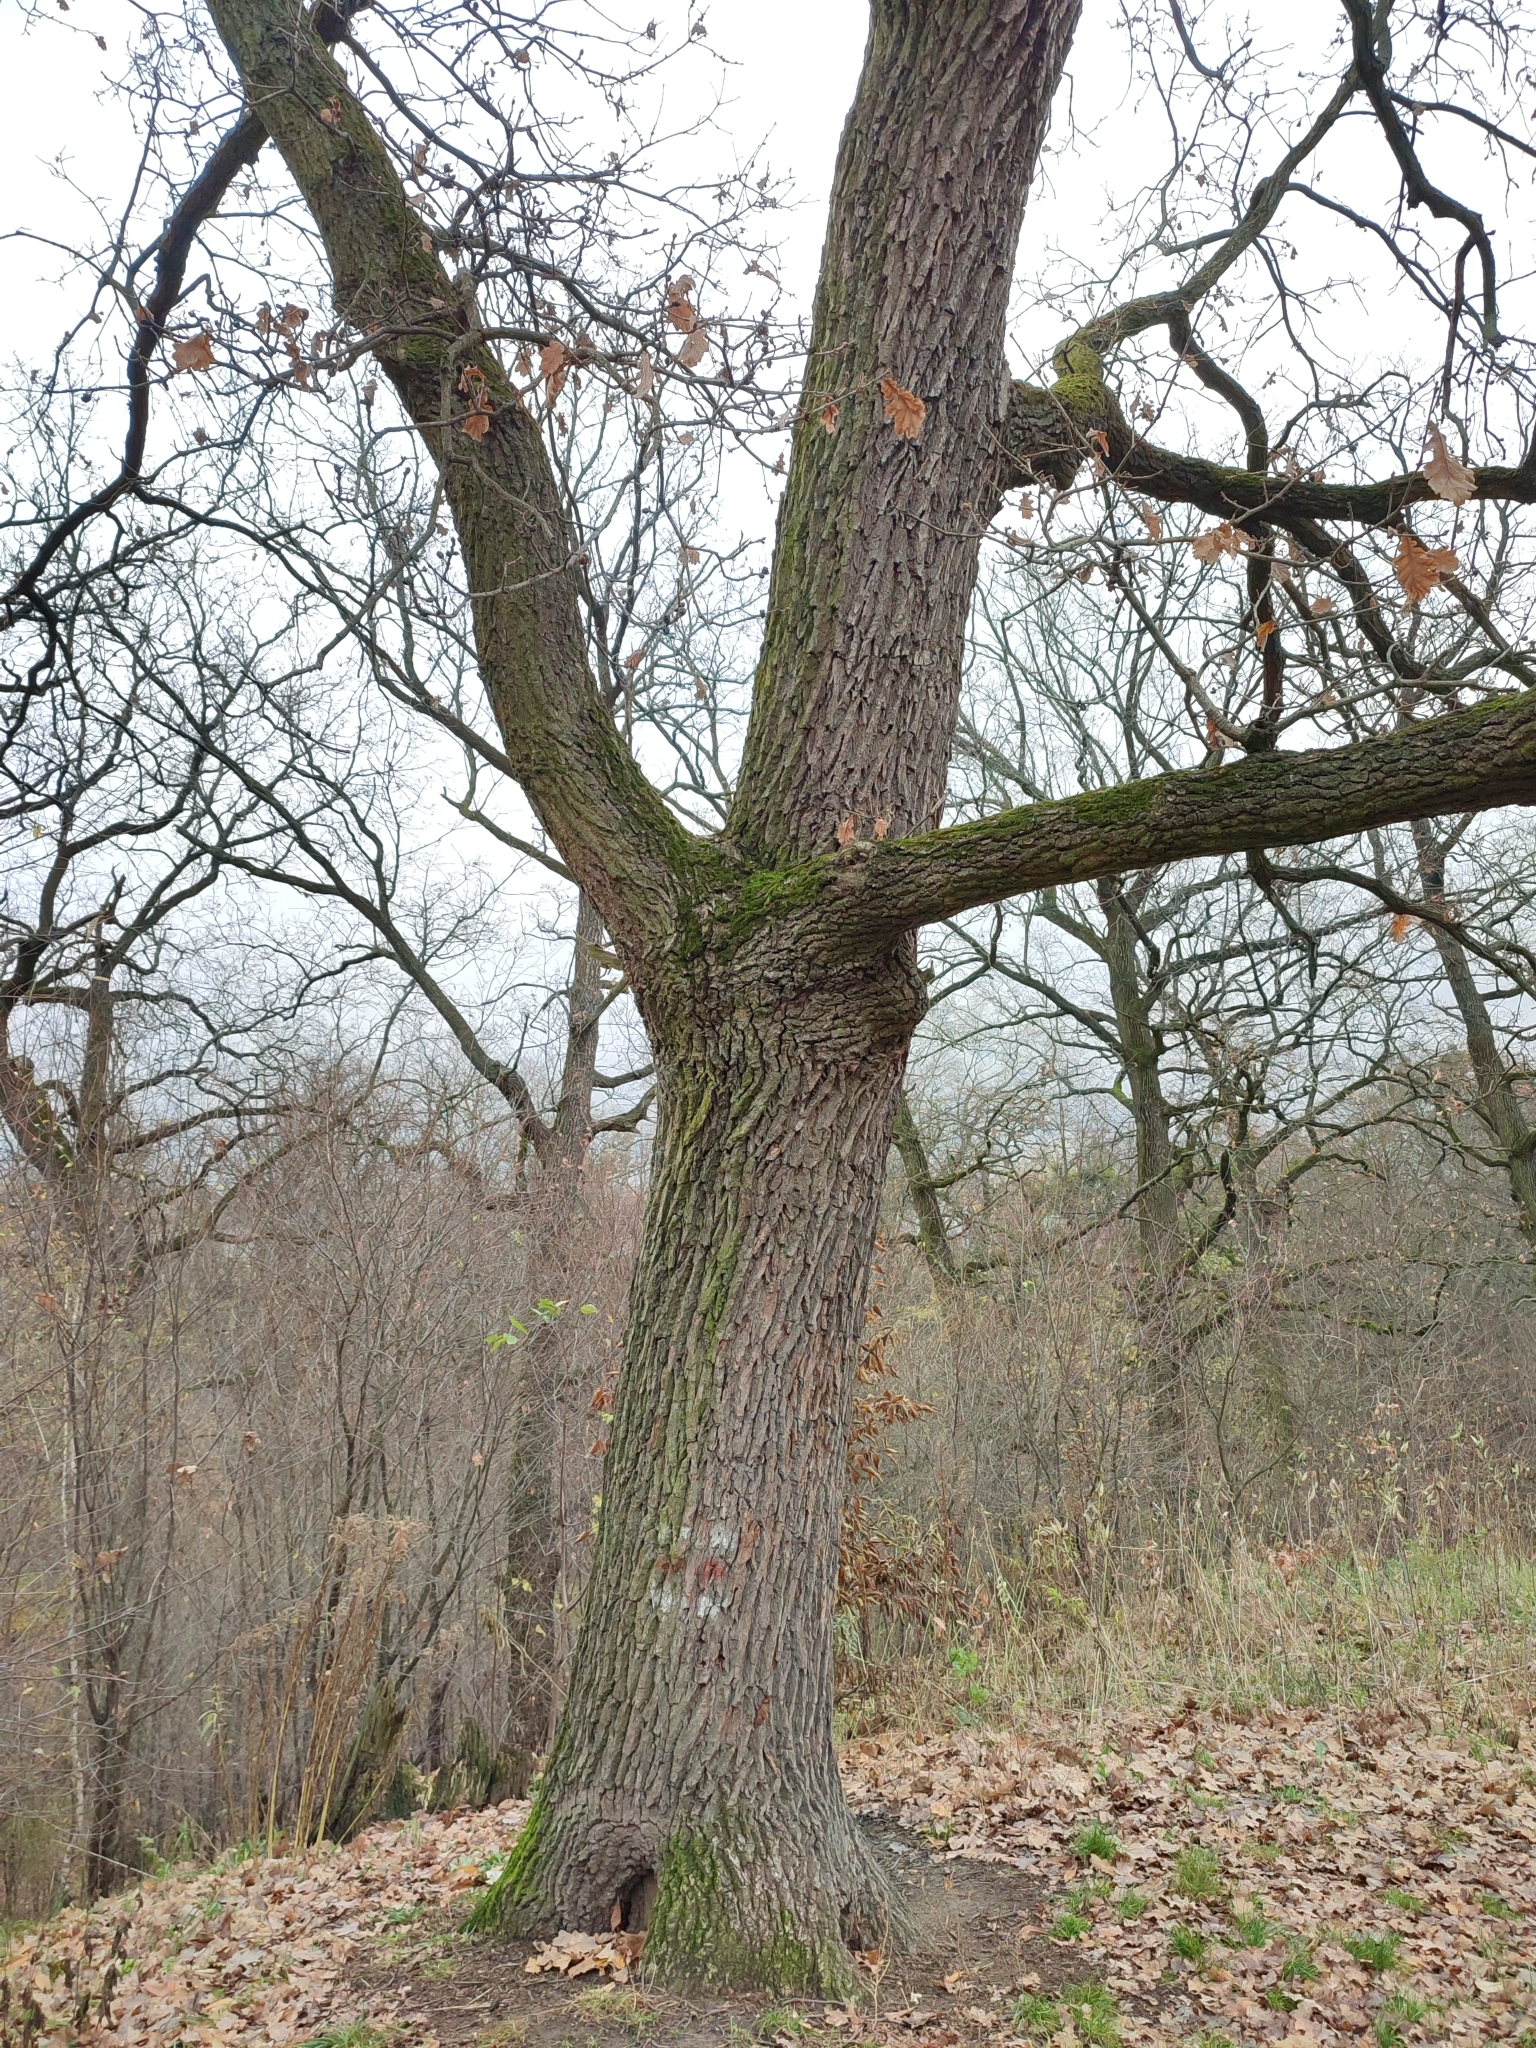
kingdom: Plantae
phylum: Tracheophyta
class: Magnoliopsida
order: Fagales
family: Fagaceae
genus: Quercus
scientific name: Quercus robur
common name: Pedunculate oak
